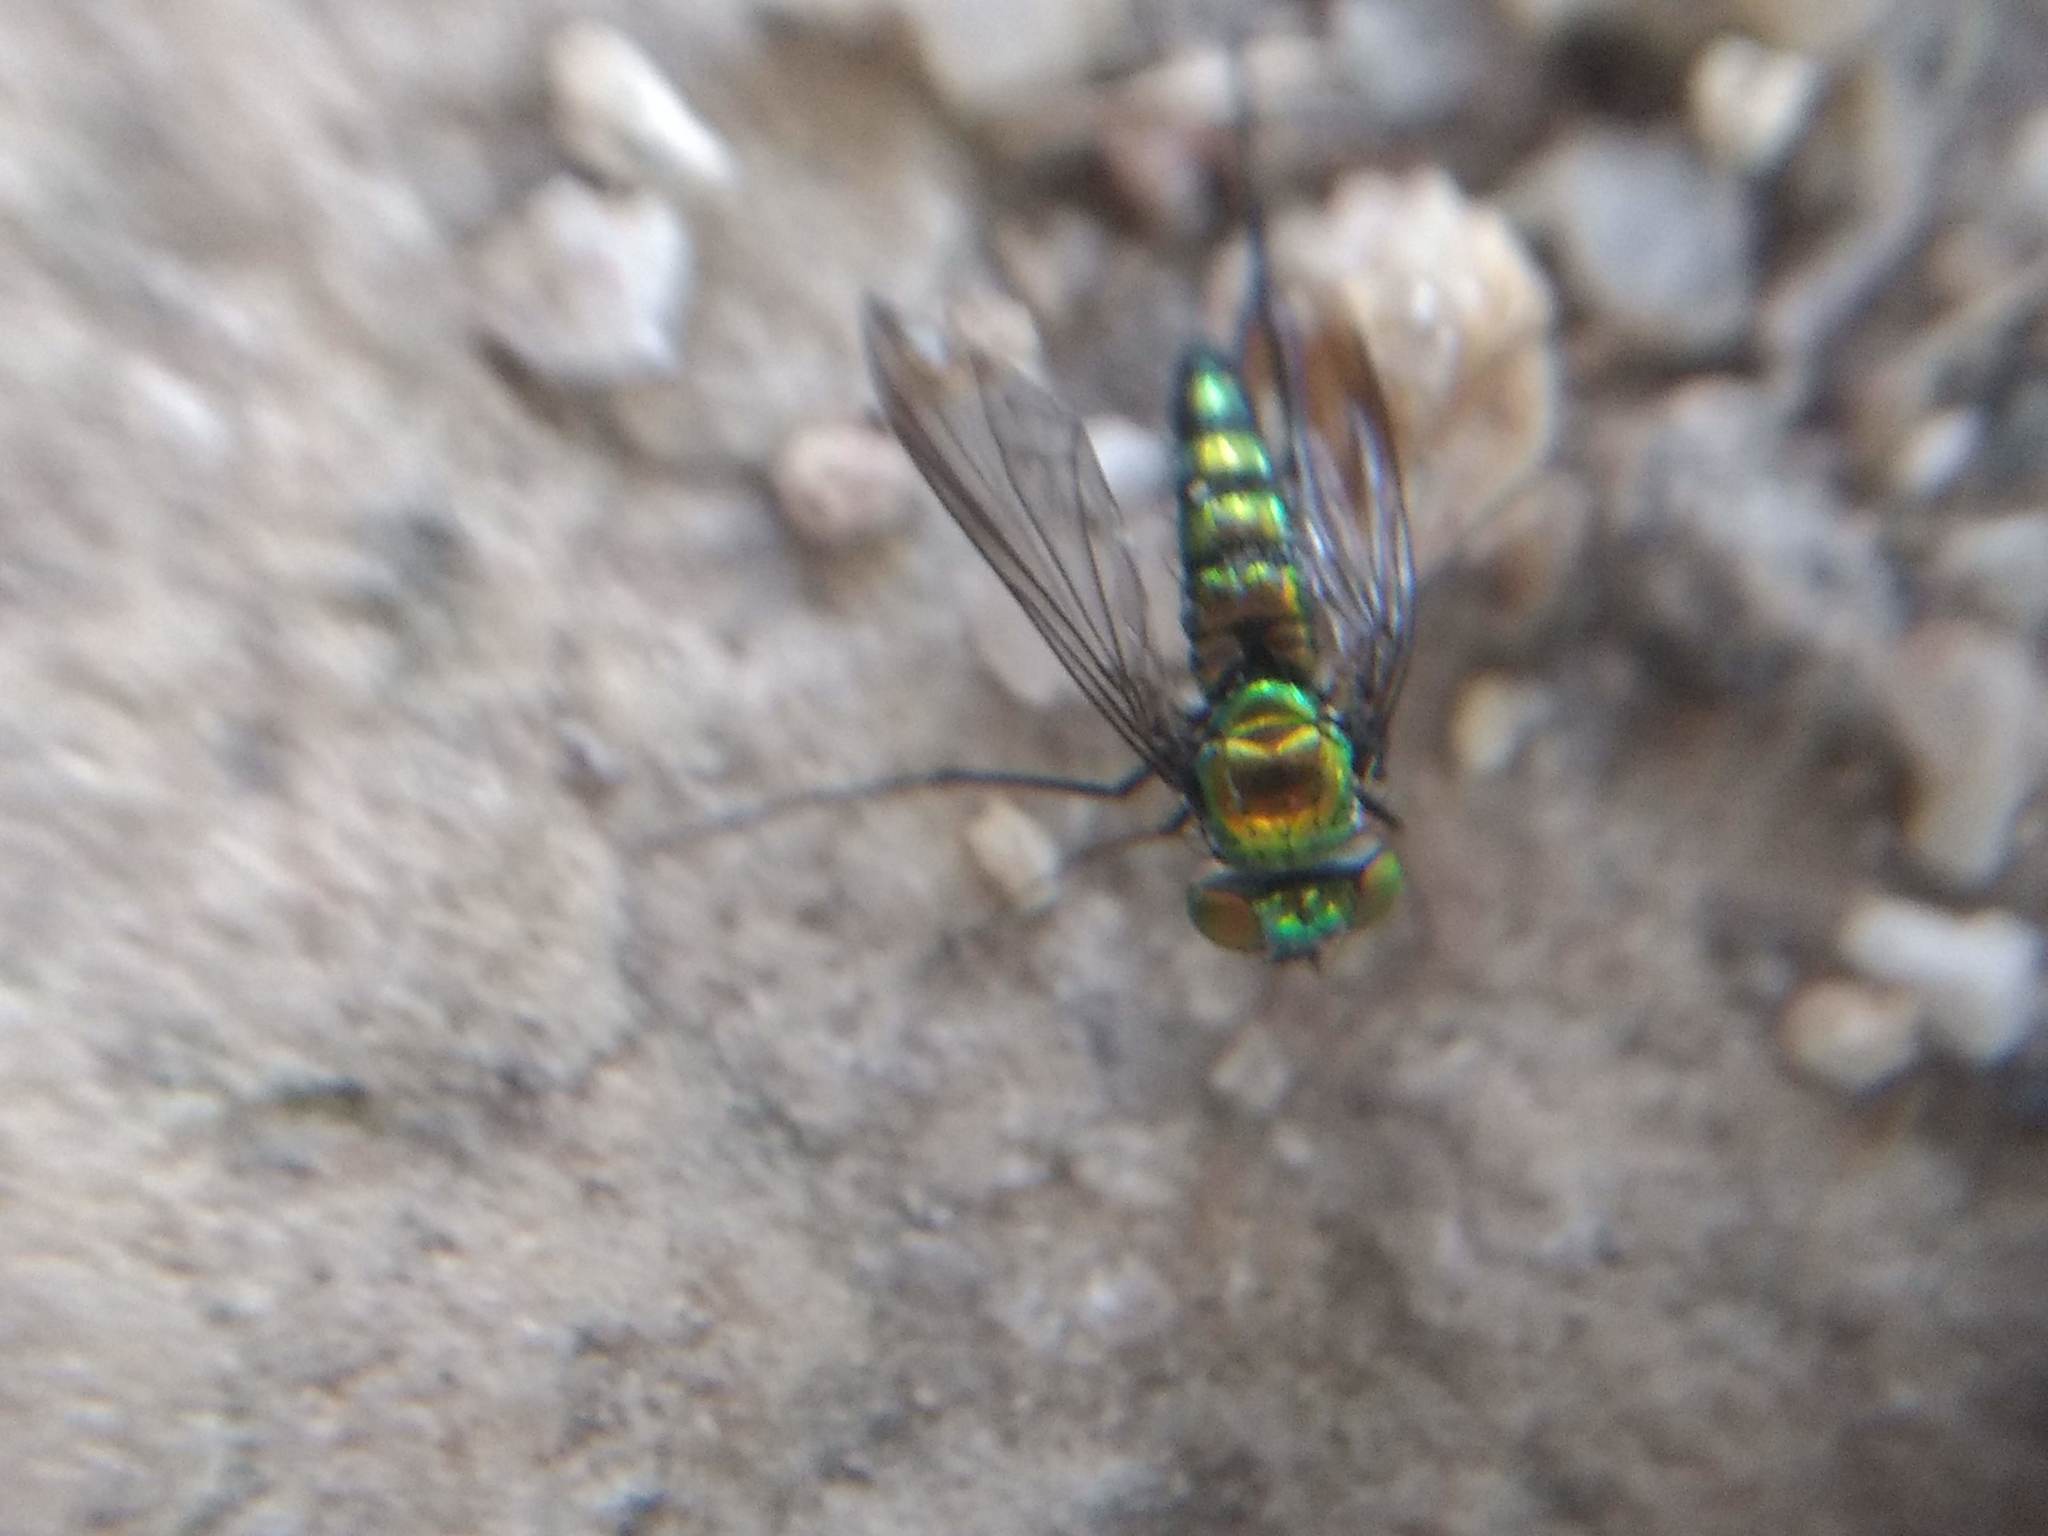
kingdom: Animalia
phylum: Arthropoda
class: Insecta
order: Diptera
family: Dolichopodidae
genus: Condylostylus
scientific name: Condylostylus longicornis
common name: Long-legged fly
